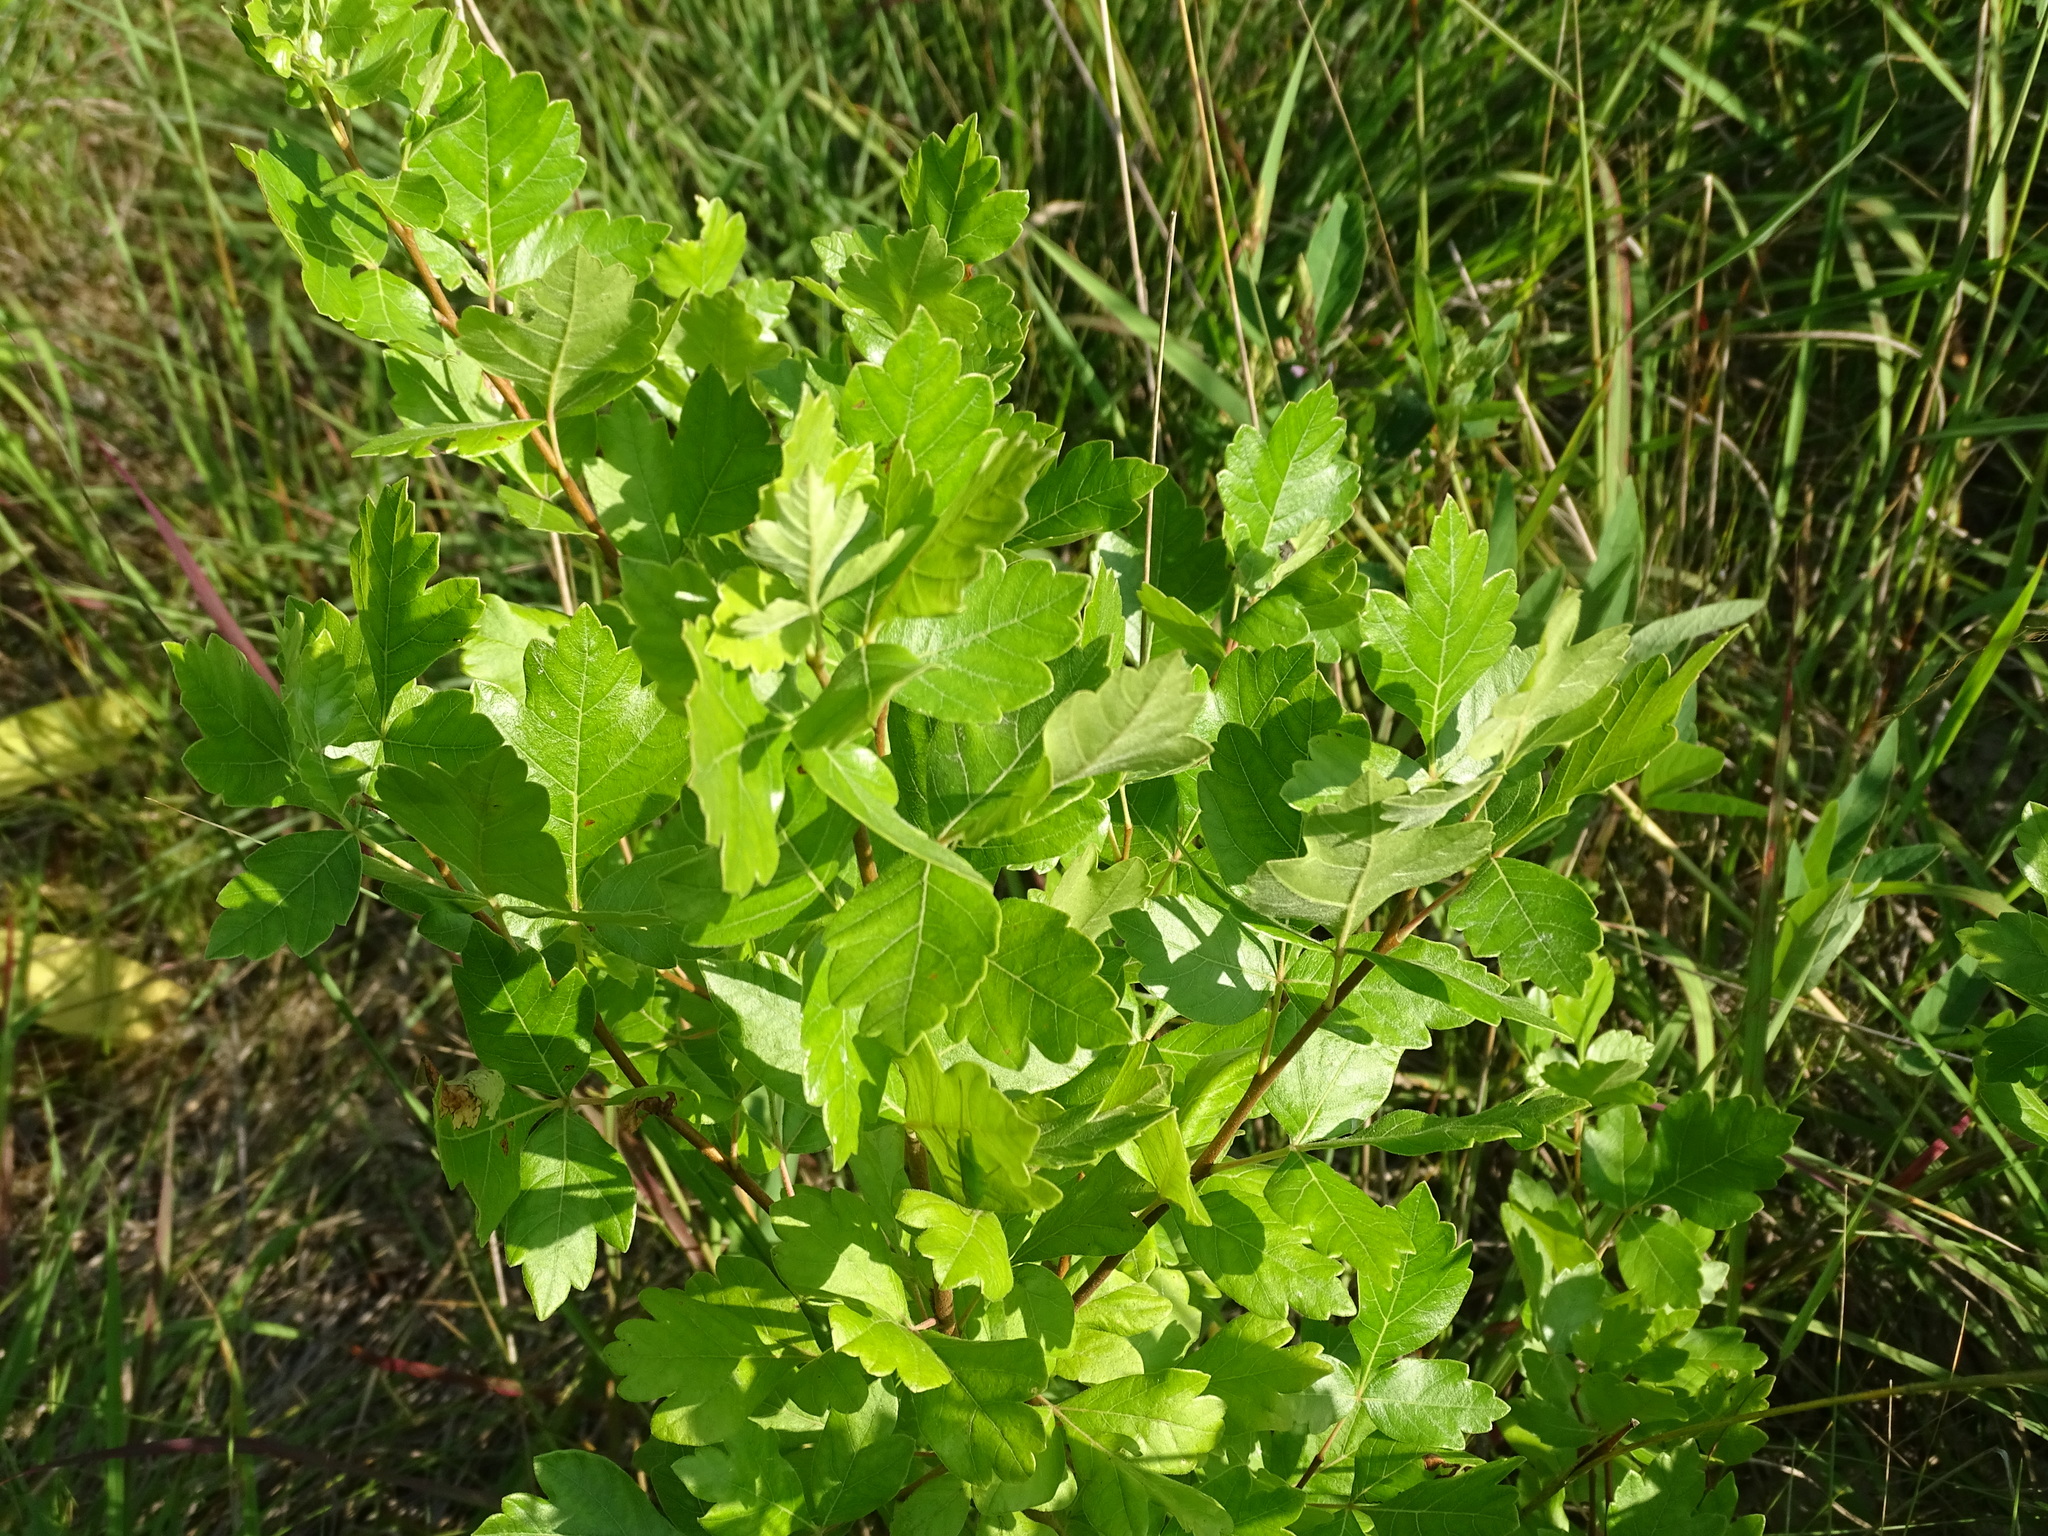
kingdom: Plantae
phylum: Tracheophyta
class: Magnoliopsida
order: Sapindales
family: Anacardiaceae
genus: Rhus
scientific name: Rhus aromatica
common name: Aromatic sumac
